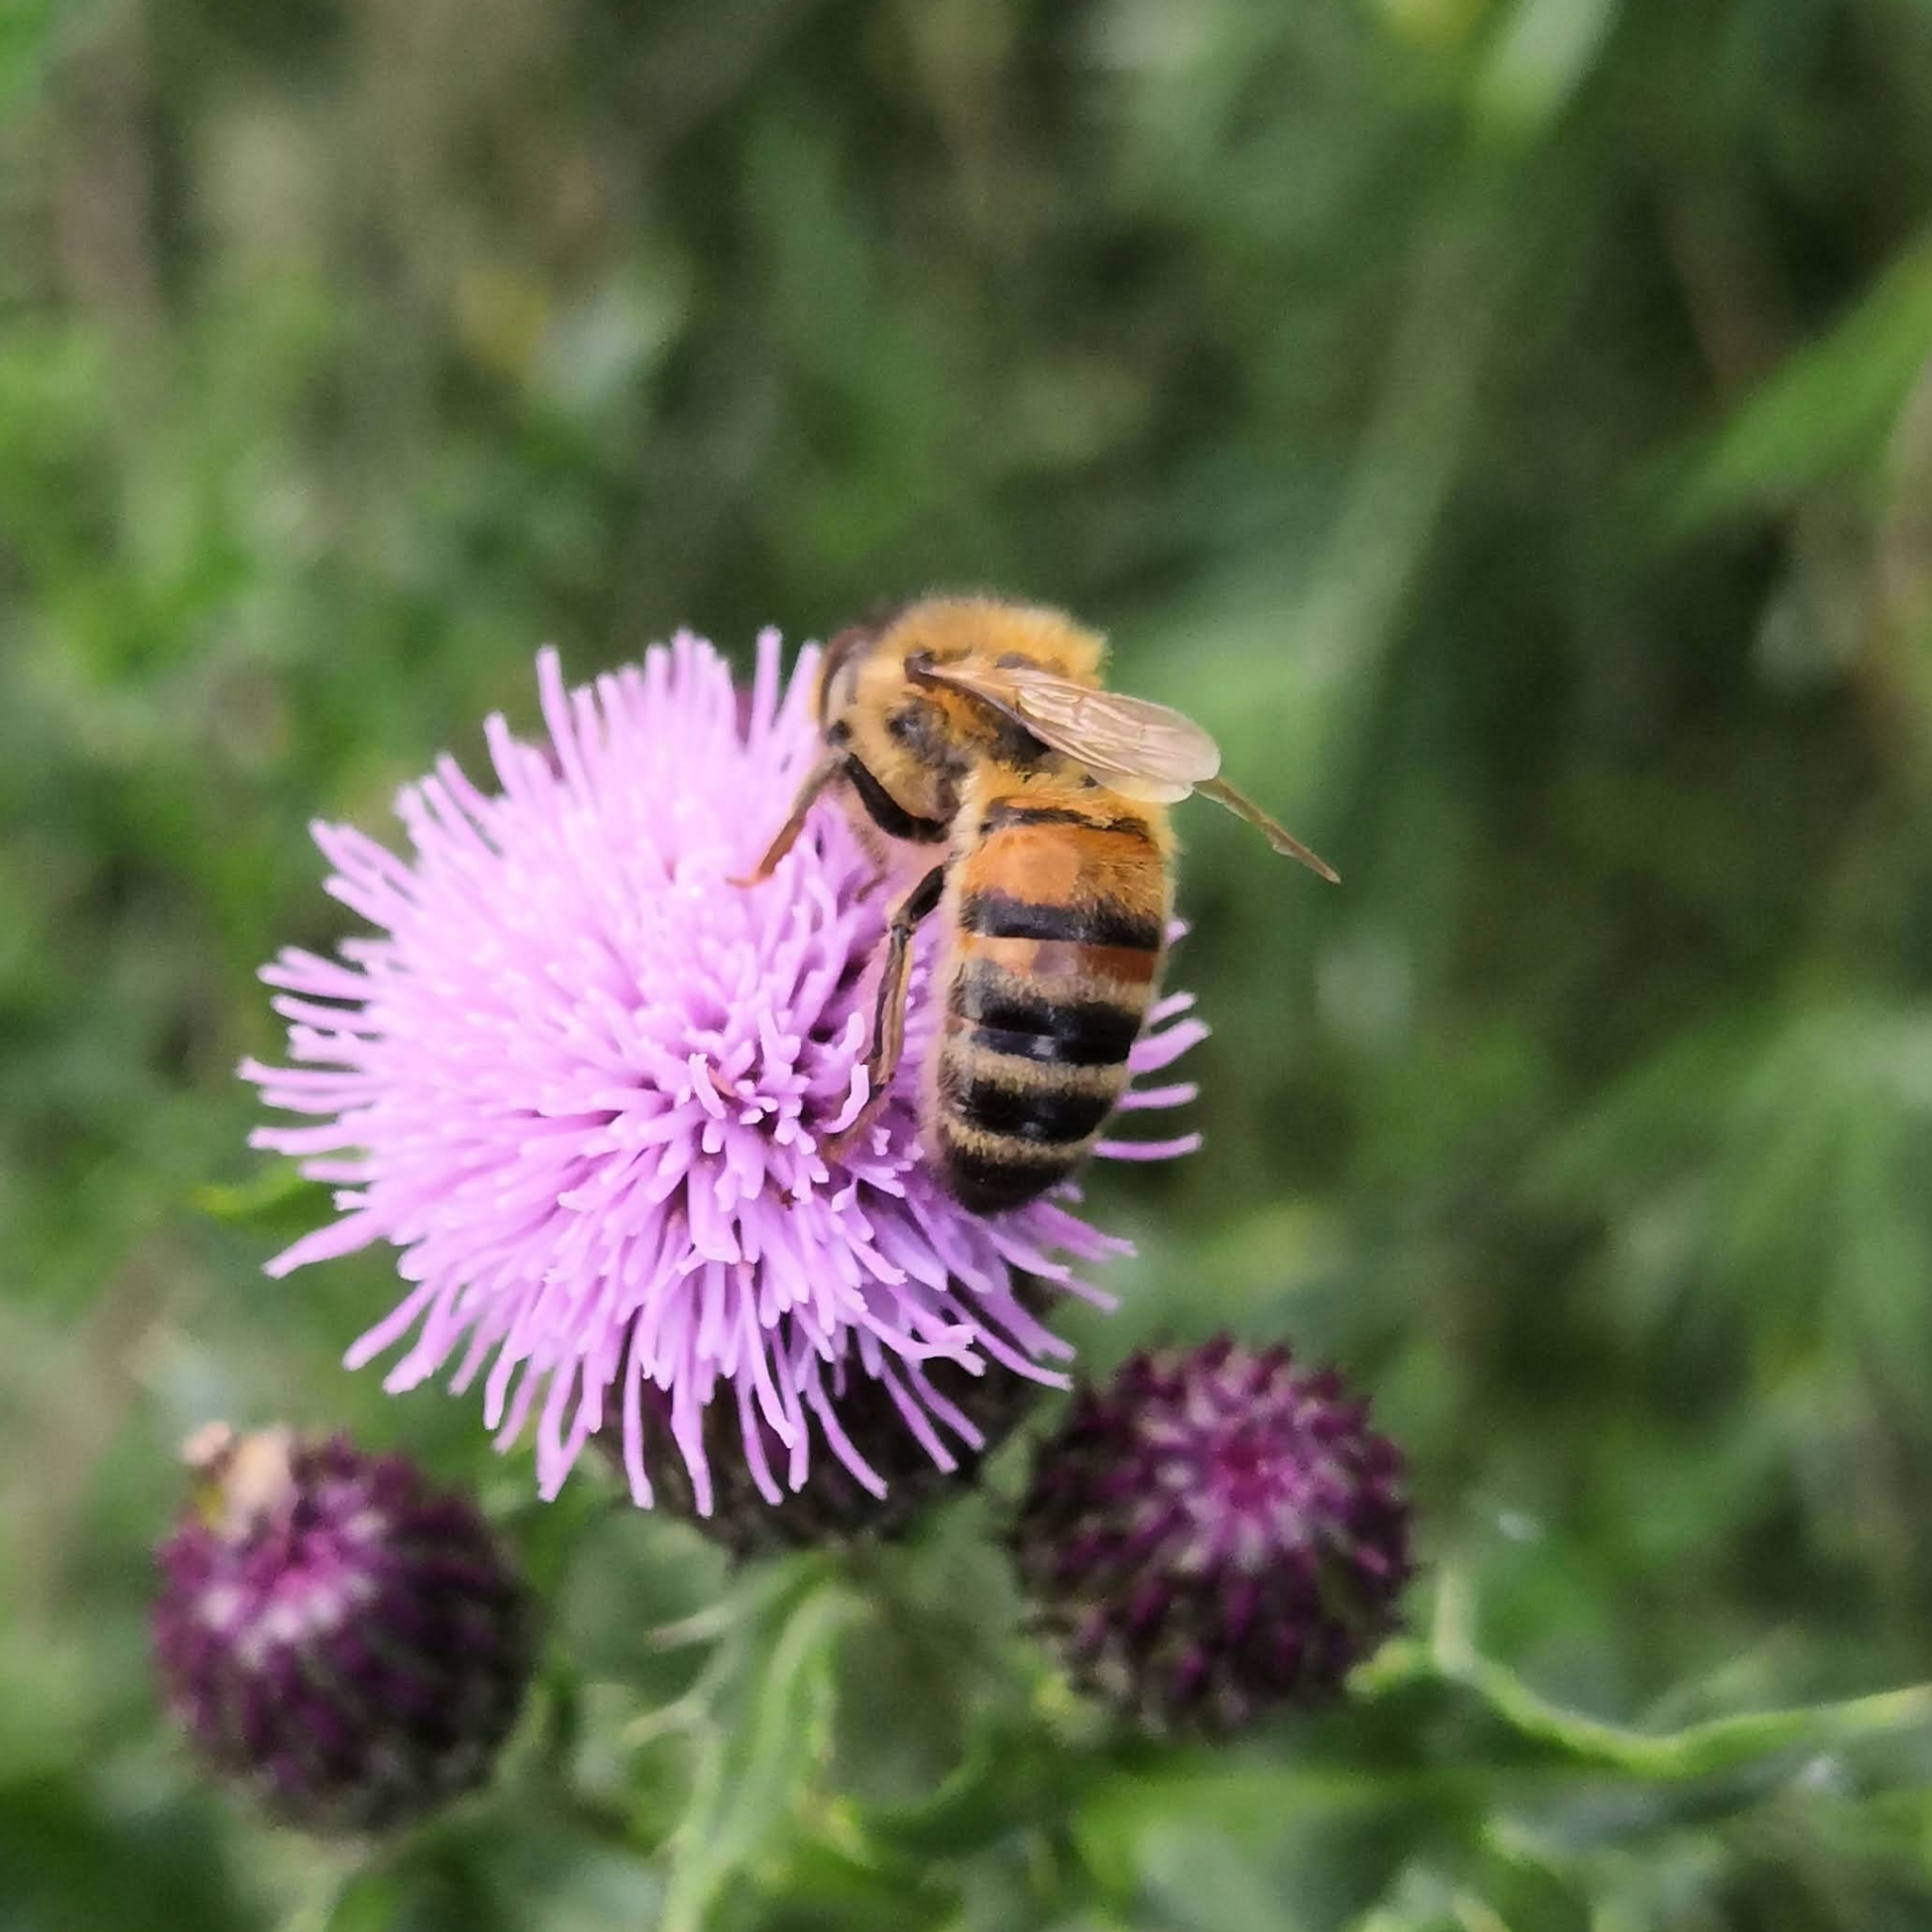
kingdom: Animalia
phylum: Arthropoda
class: Insecta
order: Hymenoptera
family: Apidae
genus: Apis
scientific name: Apis mellifera
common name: Honey bee
